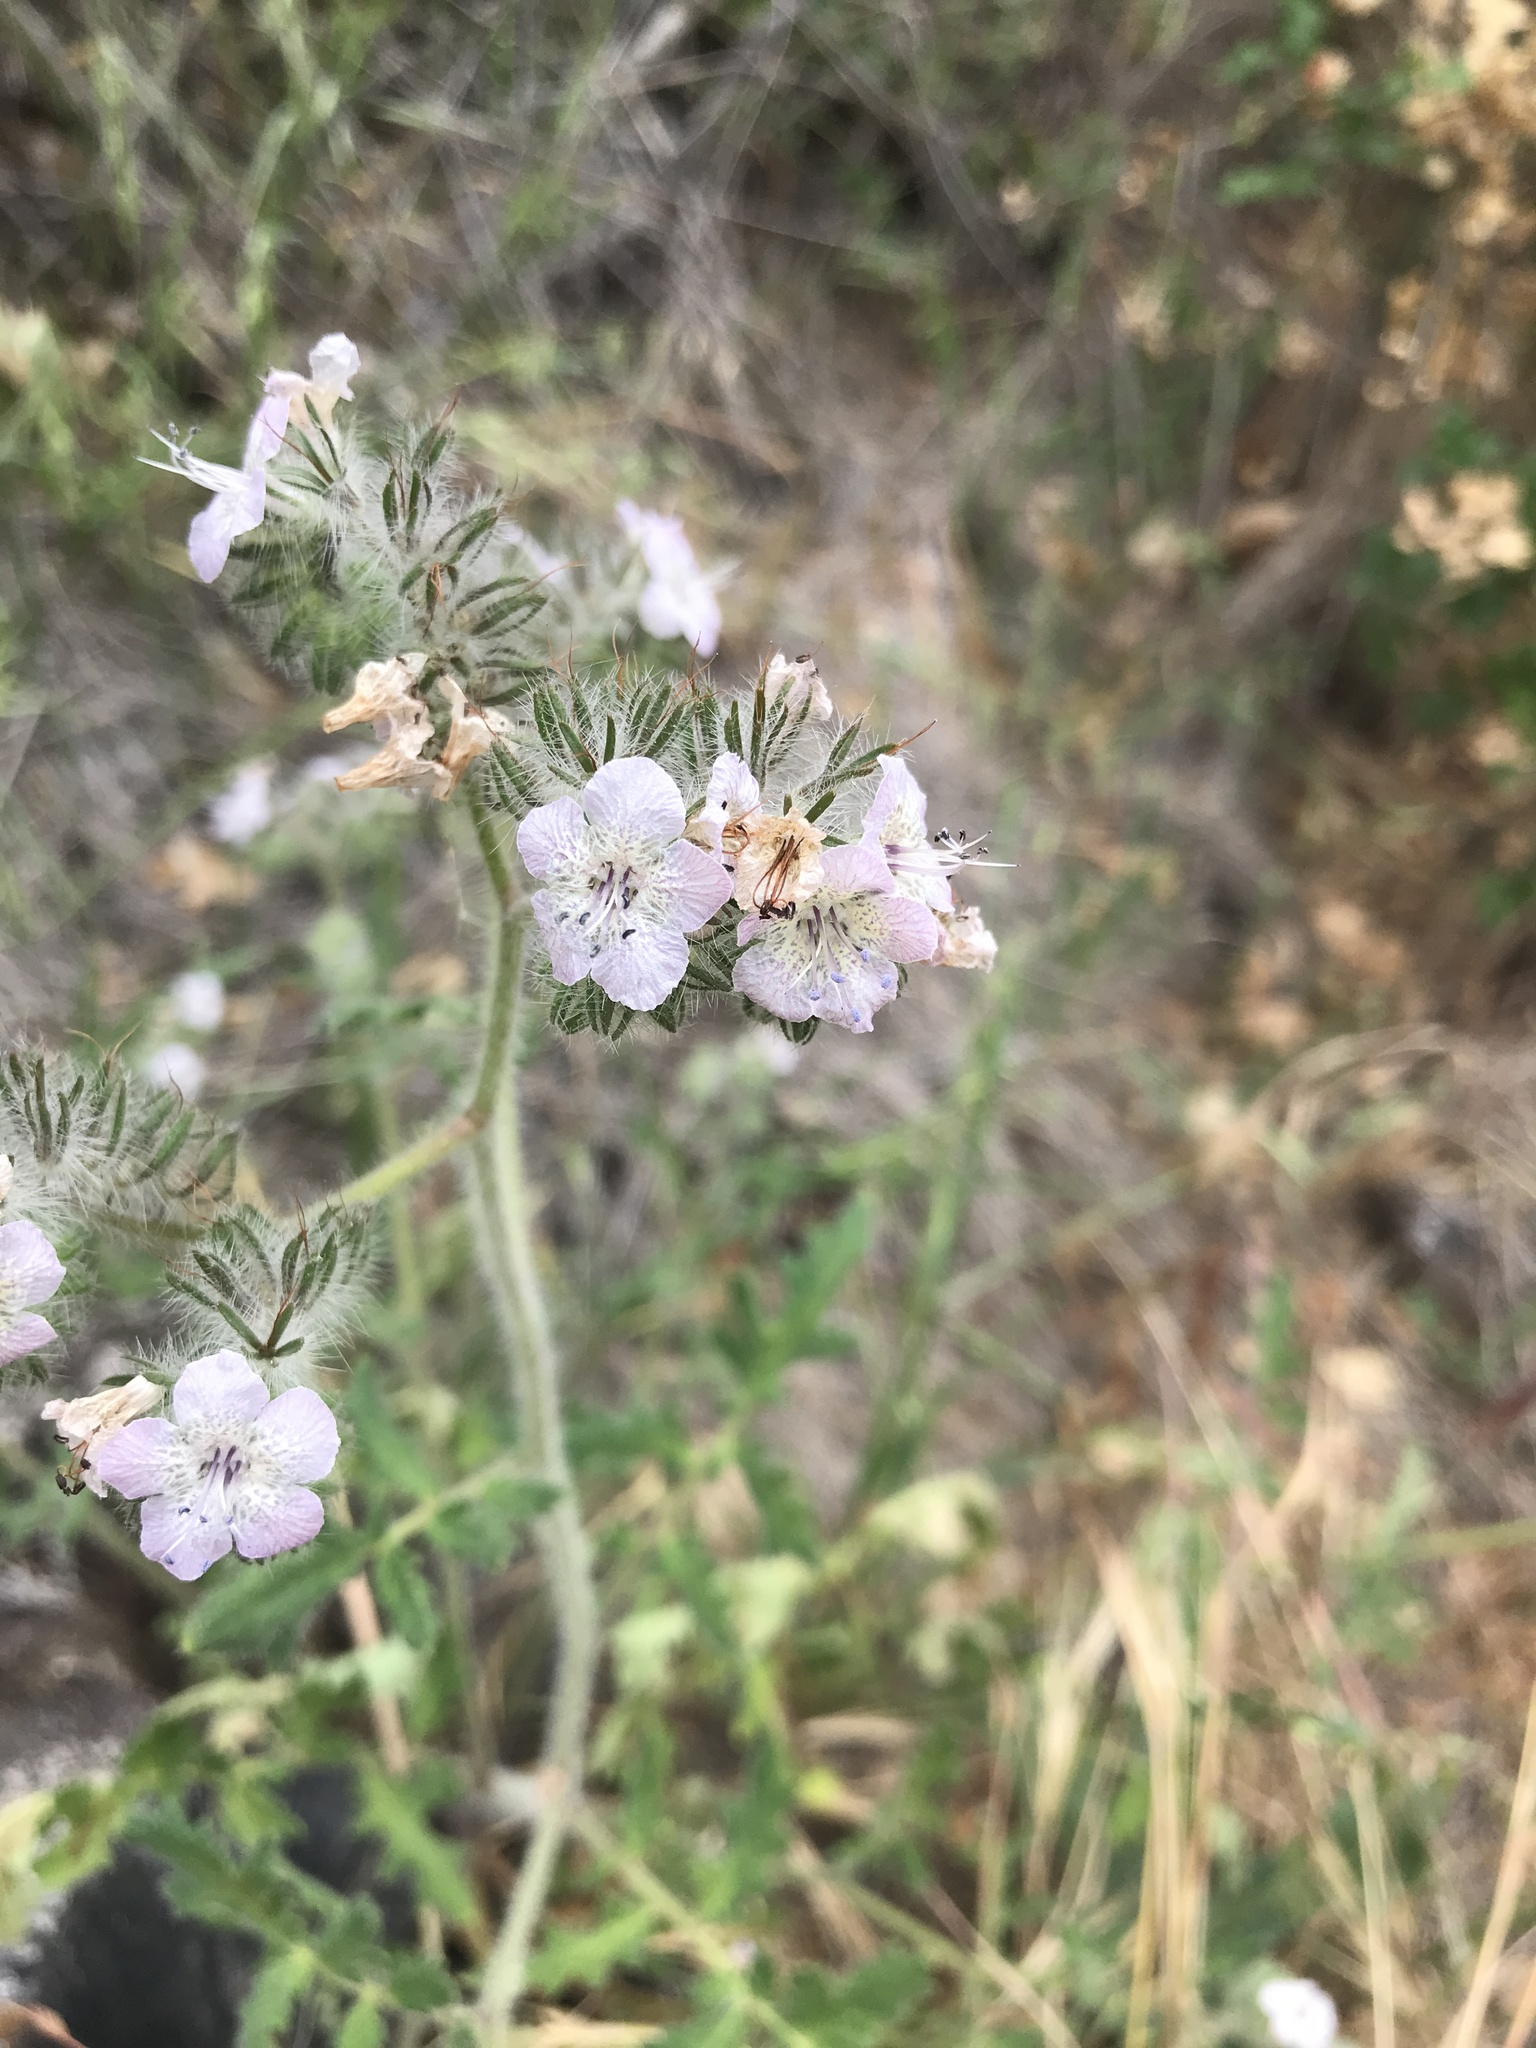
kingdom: Plantae
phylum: Tracheophyta
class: Magnoliopsida
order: Boraginales
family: Hydrophyllaceae
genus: Phacelia
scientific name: Phacelia cicutaria
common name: Caterpillar phacelia
